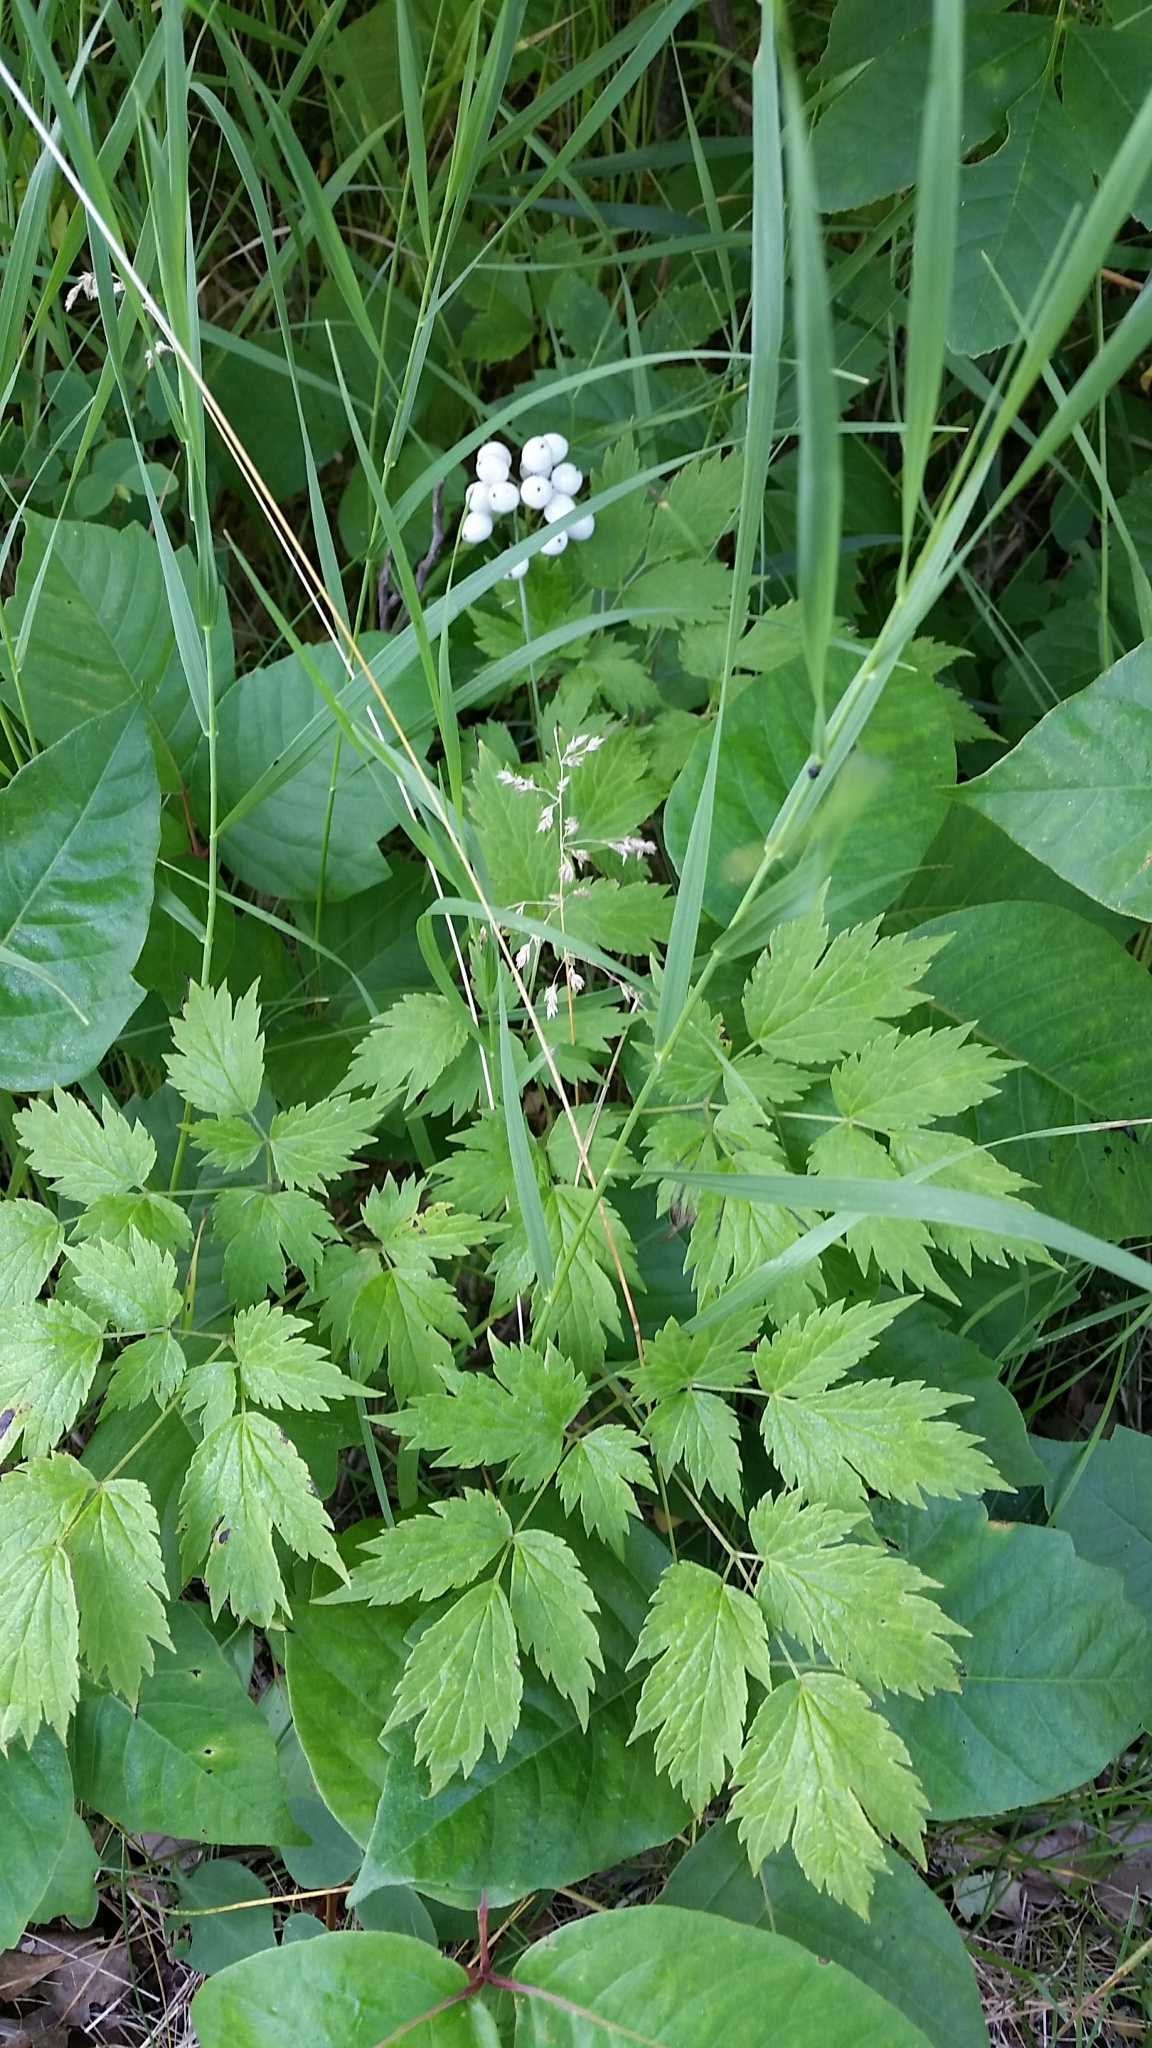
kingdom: Plantae
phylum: Tracheophyta
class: Magnoliopsida
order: Ranunculales
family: Ranunculaceae
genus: Actaea
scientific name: Actaea rubra
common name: Red baneberry
